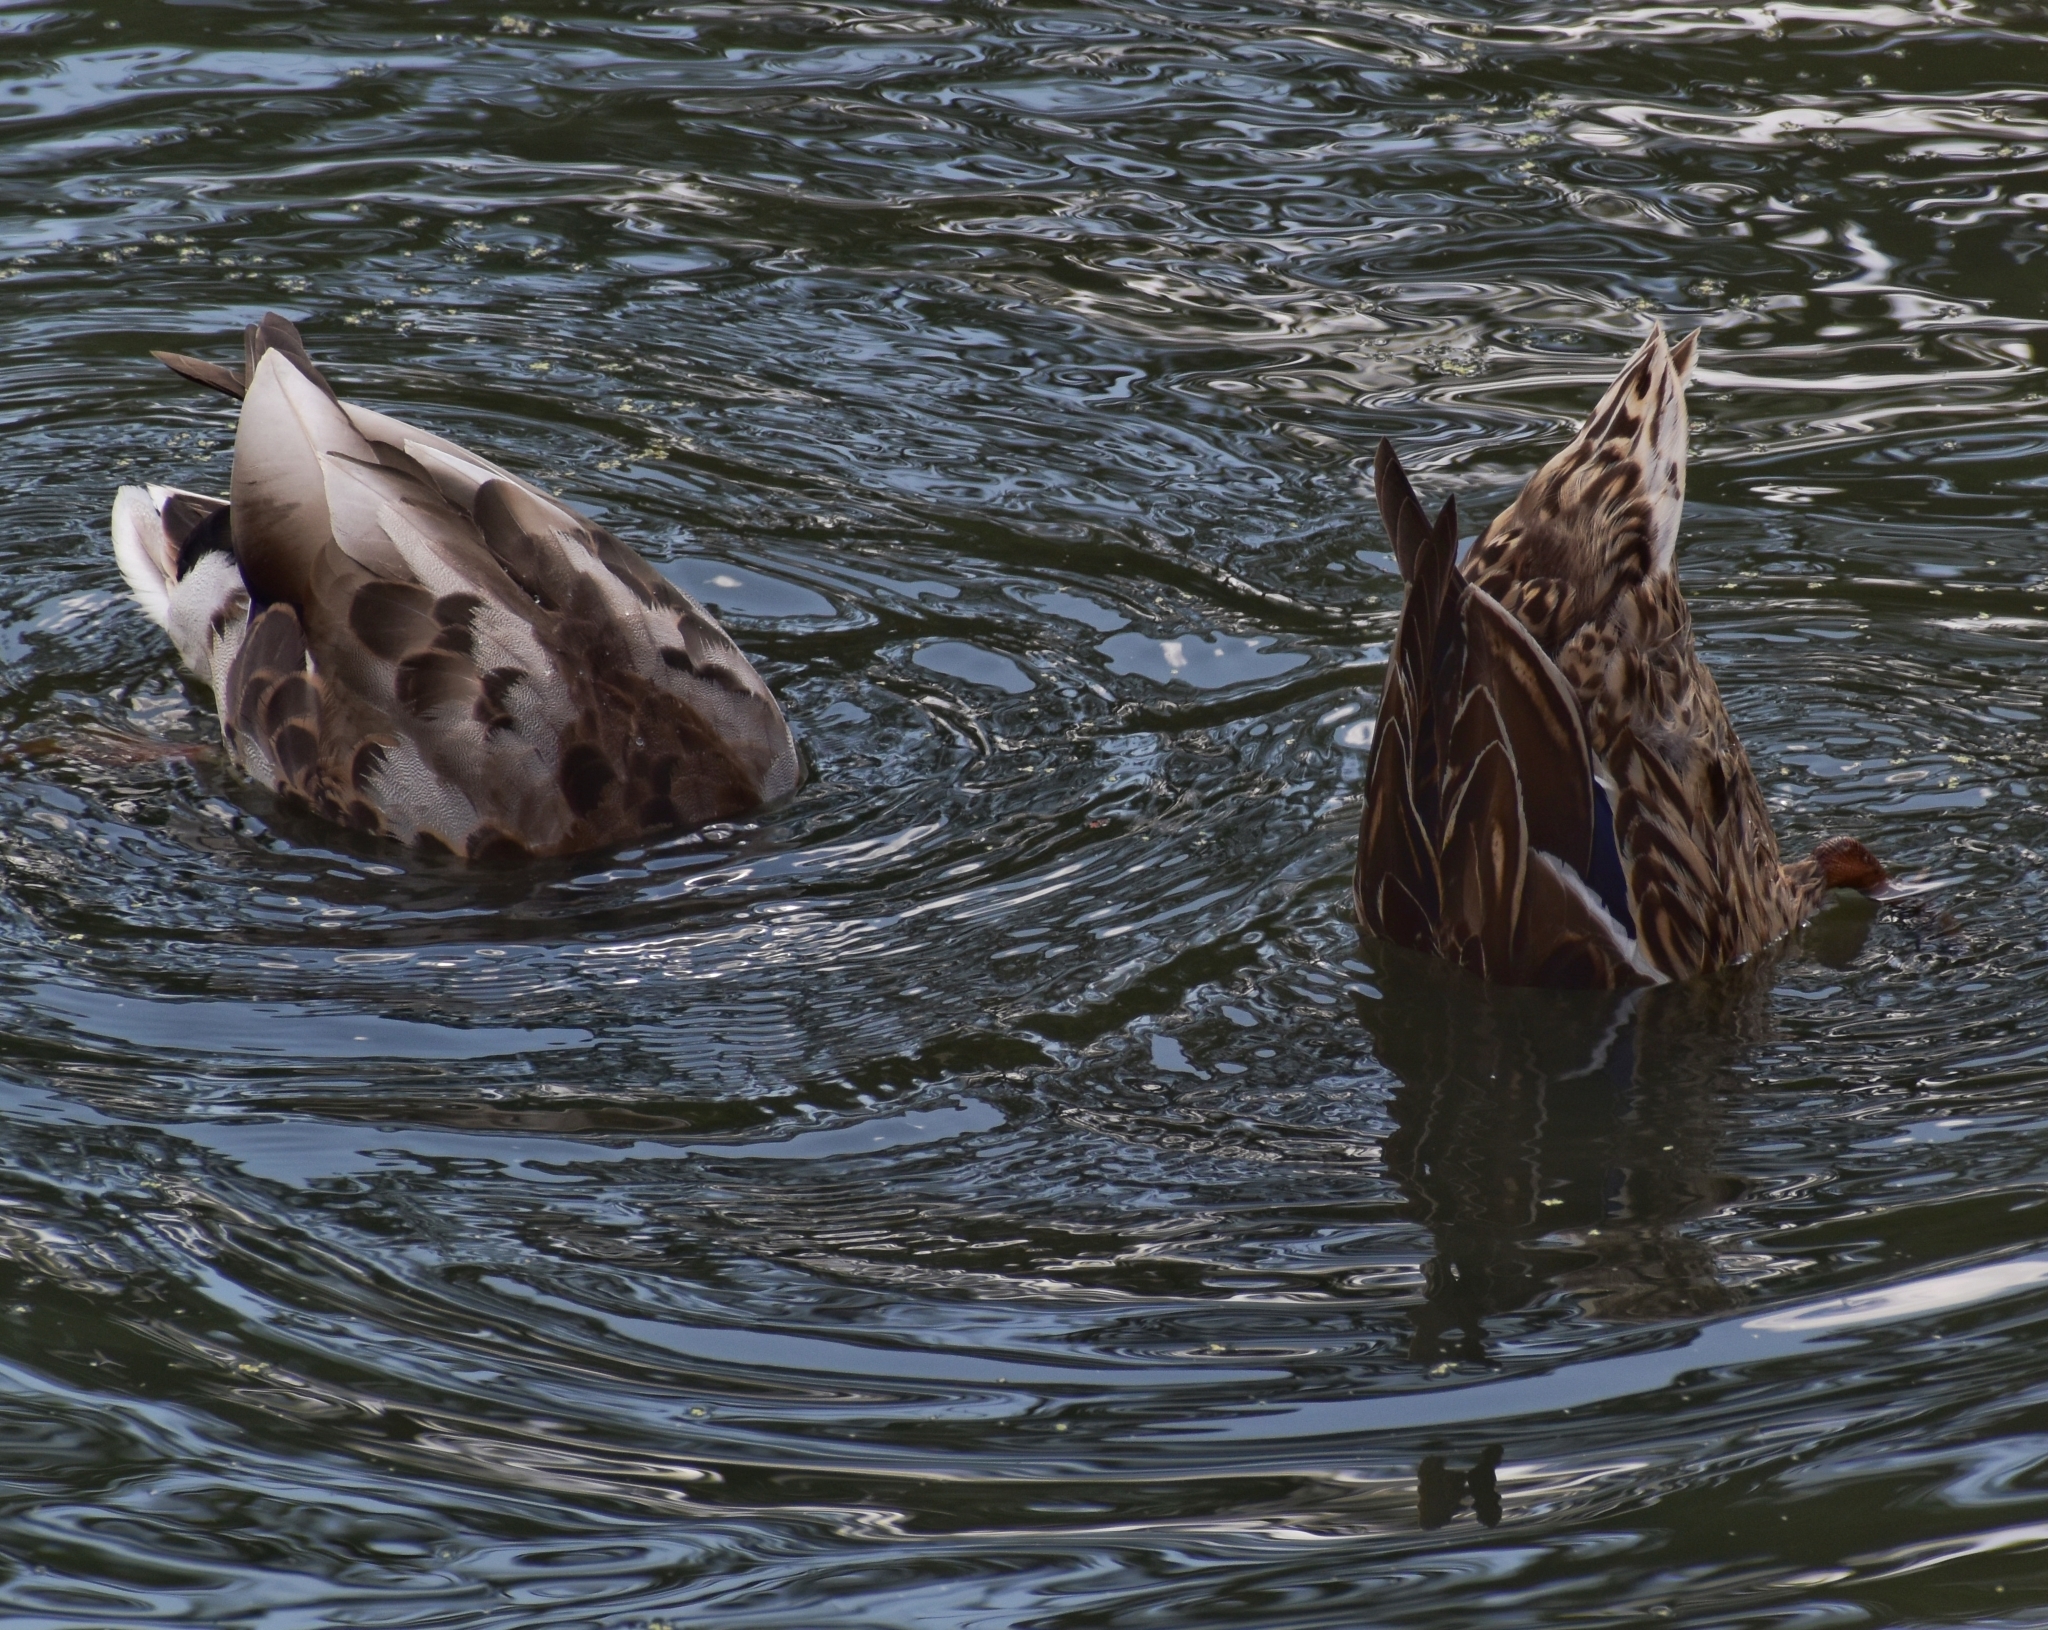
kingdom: Animalia
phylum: Chordata
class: Aves
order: Anseriformes
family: Anatidae
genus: Anas
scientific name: Anas platyrhynchos
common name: Mallard
